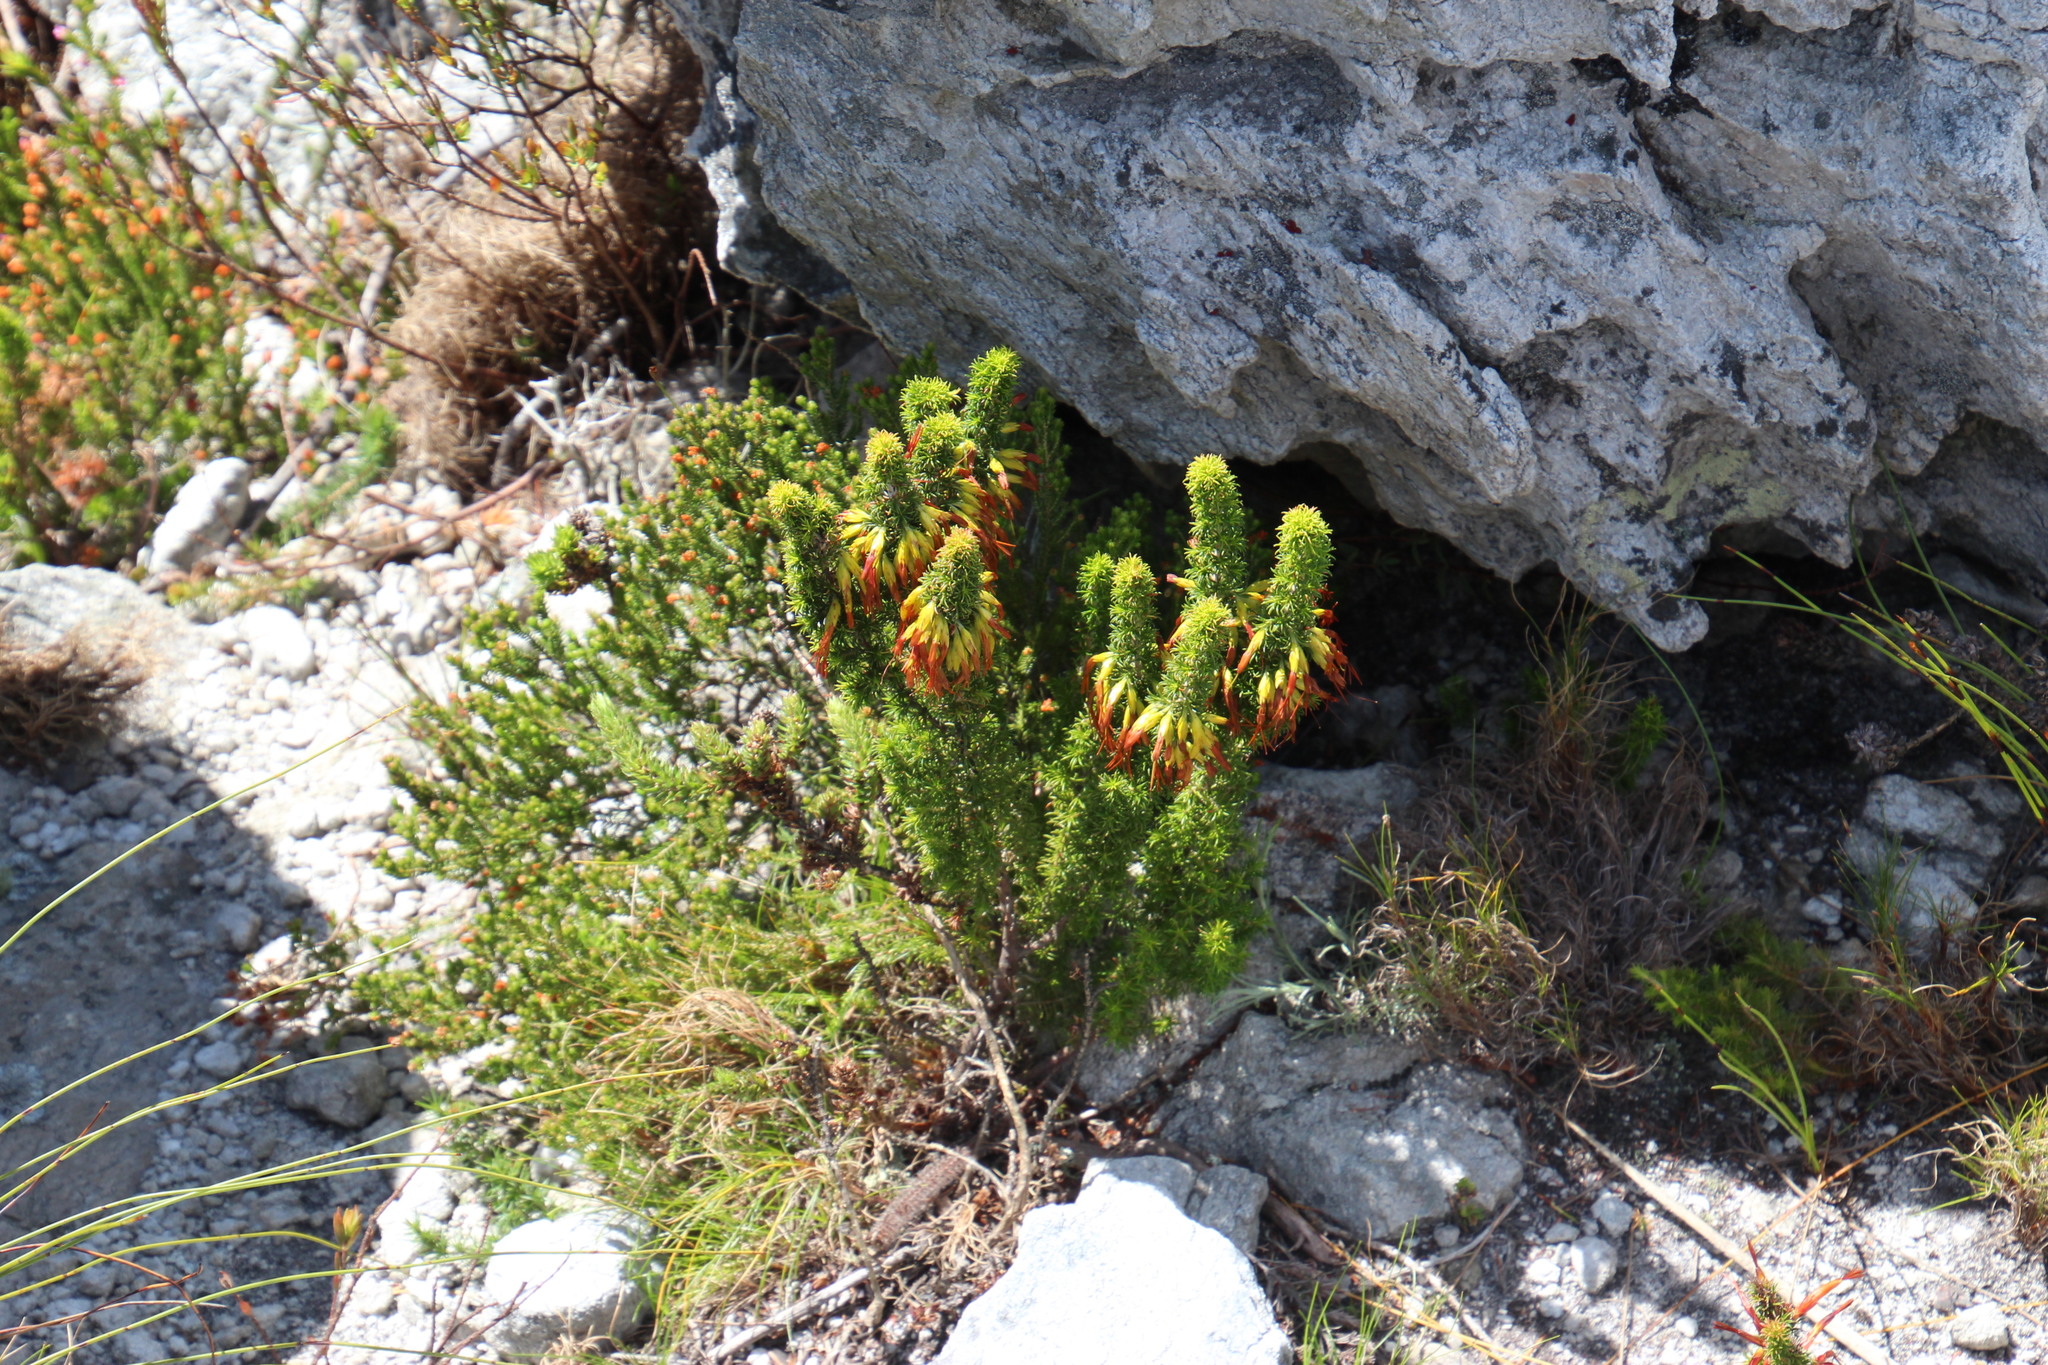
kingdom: Plantae
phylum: Tracheophyta
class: Magnoliopsida
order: Ericales
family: Ericaceae
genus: Erica
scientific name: Erica coccinea
